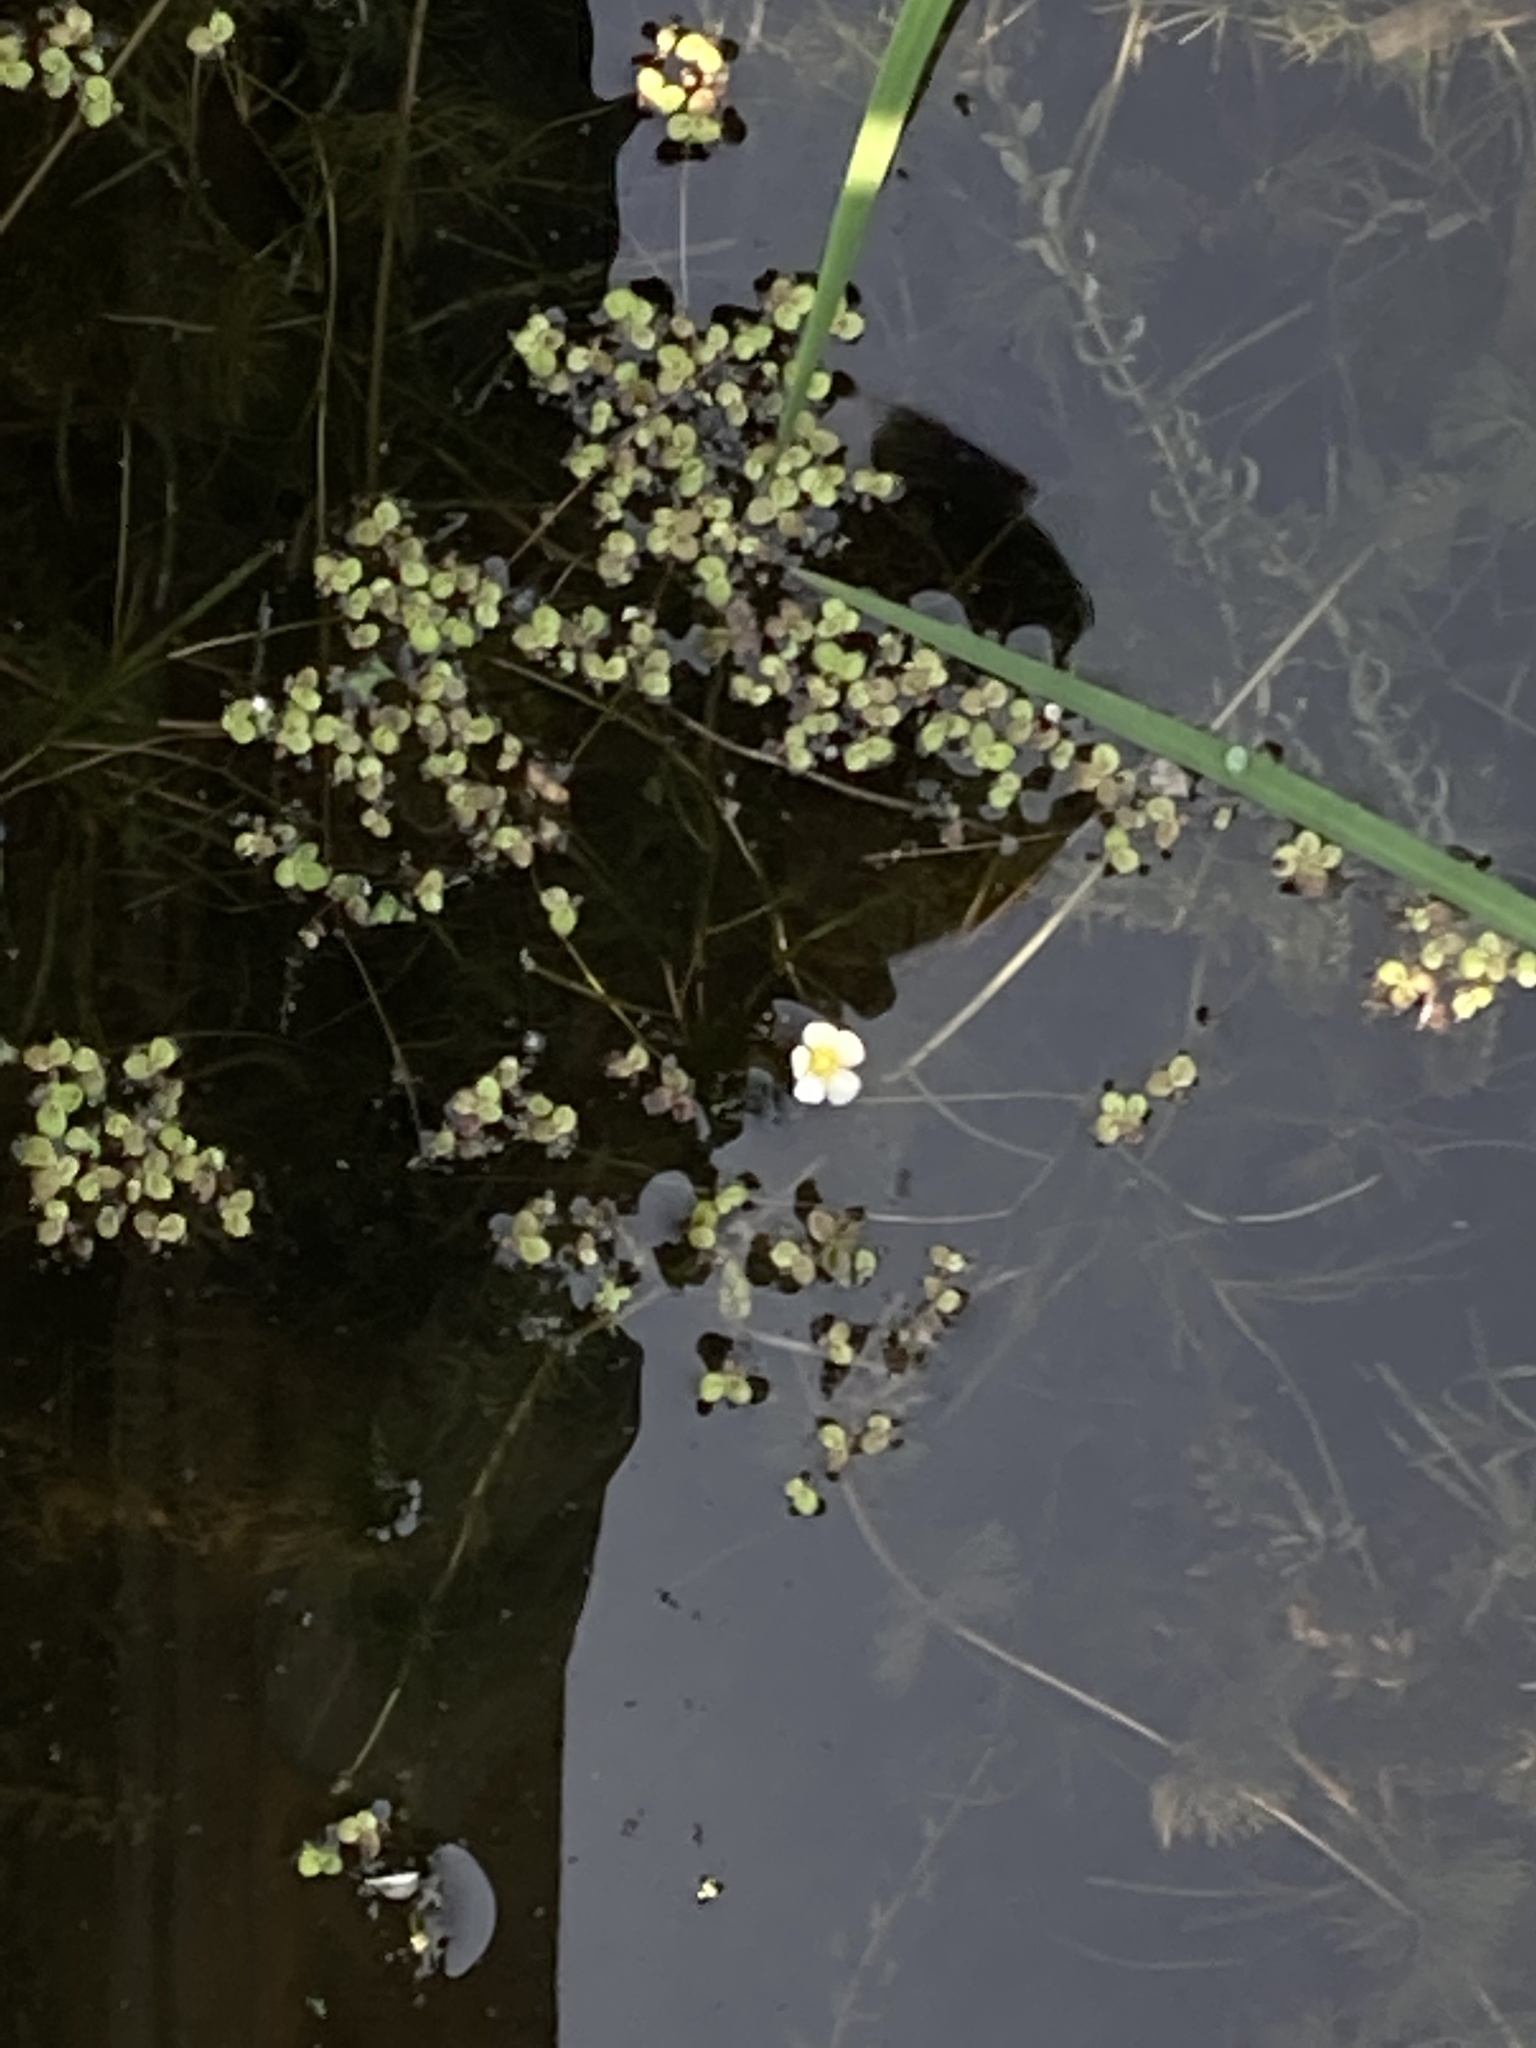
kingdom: Plantae
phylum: Tracheophyta
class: Liliopsida
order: Alismatales
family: Araceae
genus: Spirodela
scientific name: Spirodela polyrhiza
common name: Great duckweed
